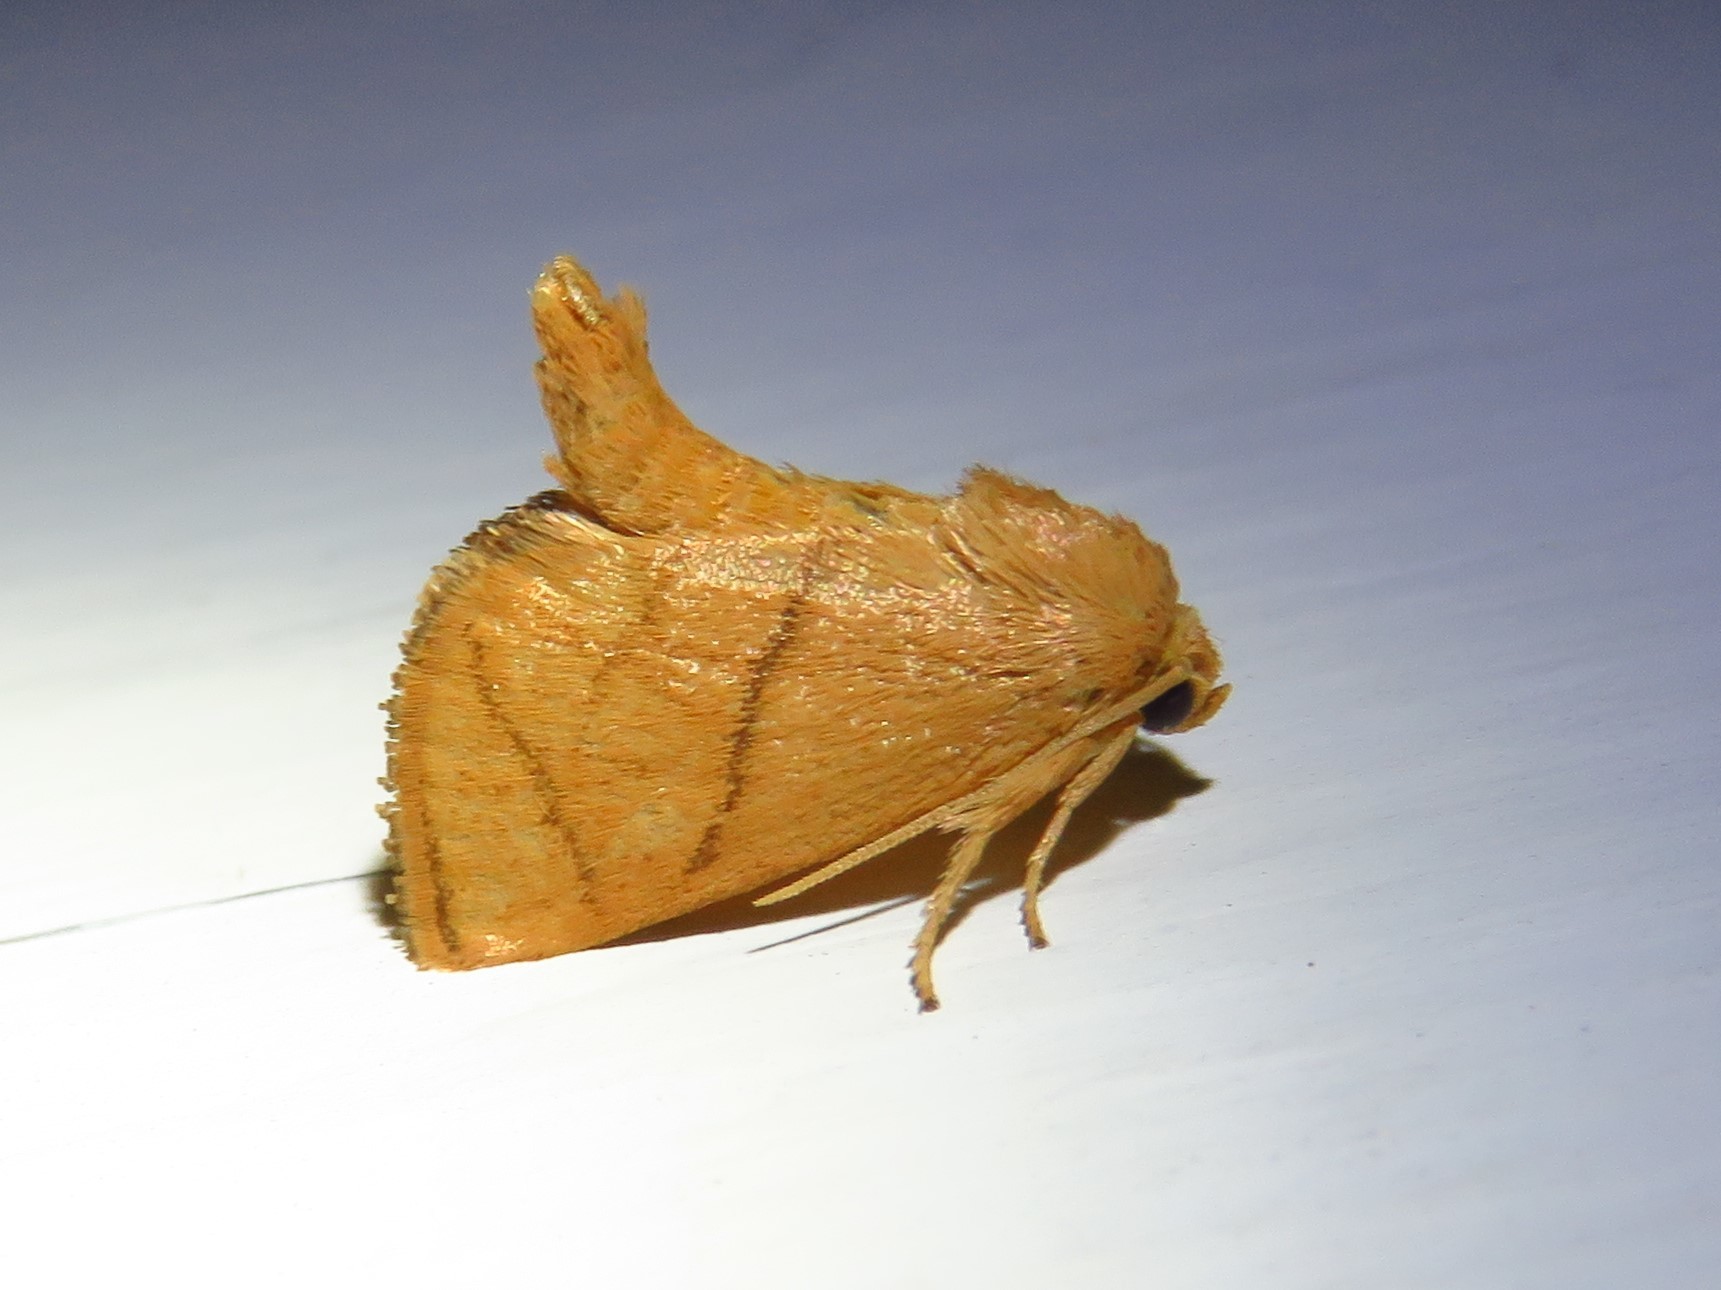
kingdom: Animalia
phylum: Arthropoda
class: Insecta
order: Lepidoptera
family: Limacodidae
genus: Apoda
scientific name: Apoda y-inversa
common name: Yellow-collared slug moth
